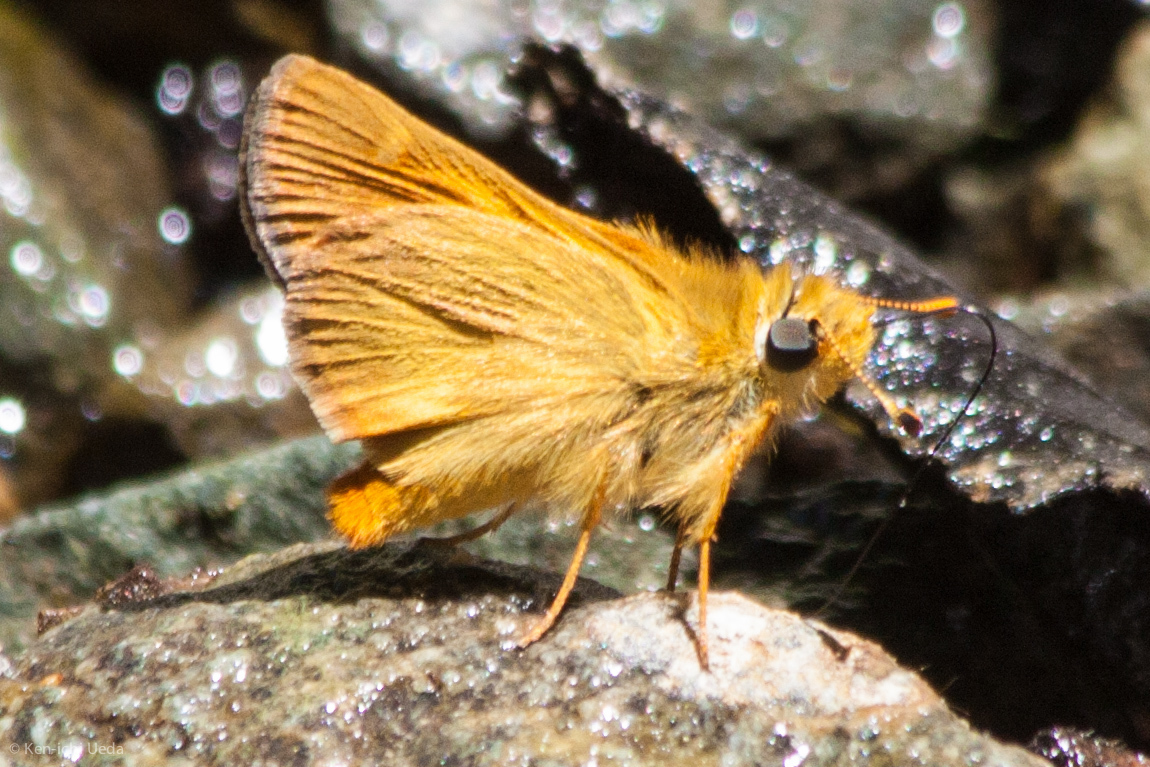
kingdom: Animalia
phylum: Arthropoda
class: Insecta
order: Lepidoptera
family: Hesperiidae
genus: Ochlodes
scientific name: Ochlodes agricola
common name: Rural skipper
